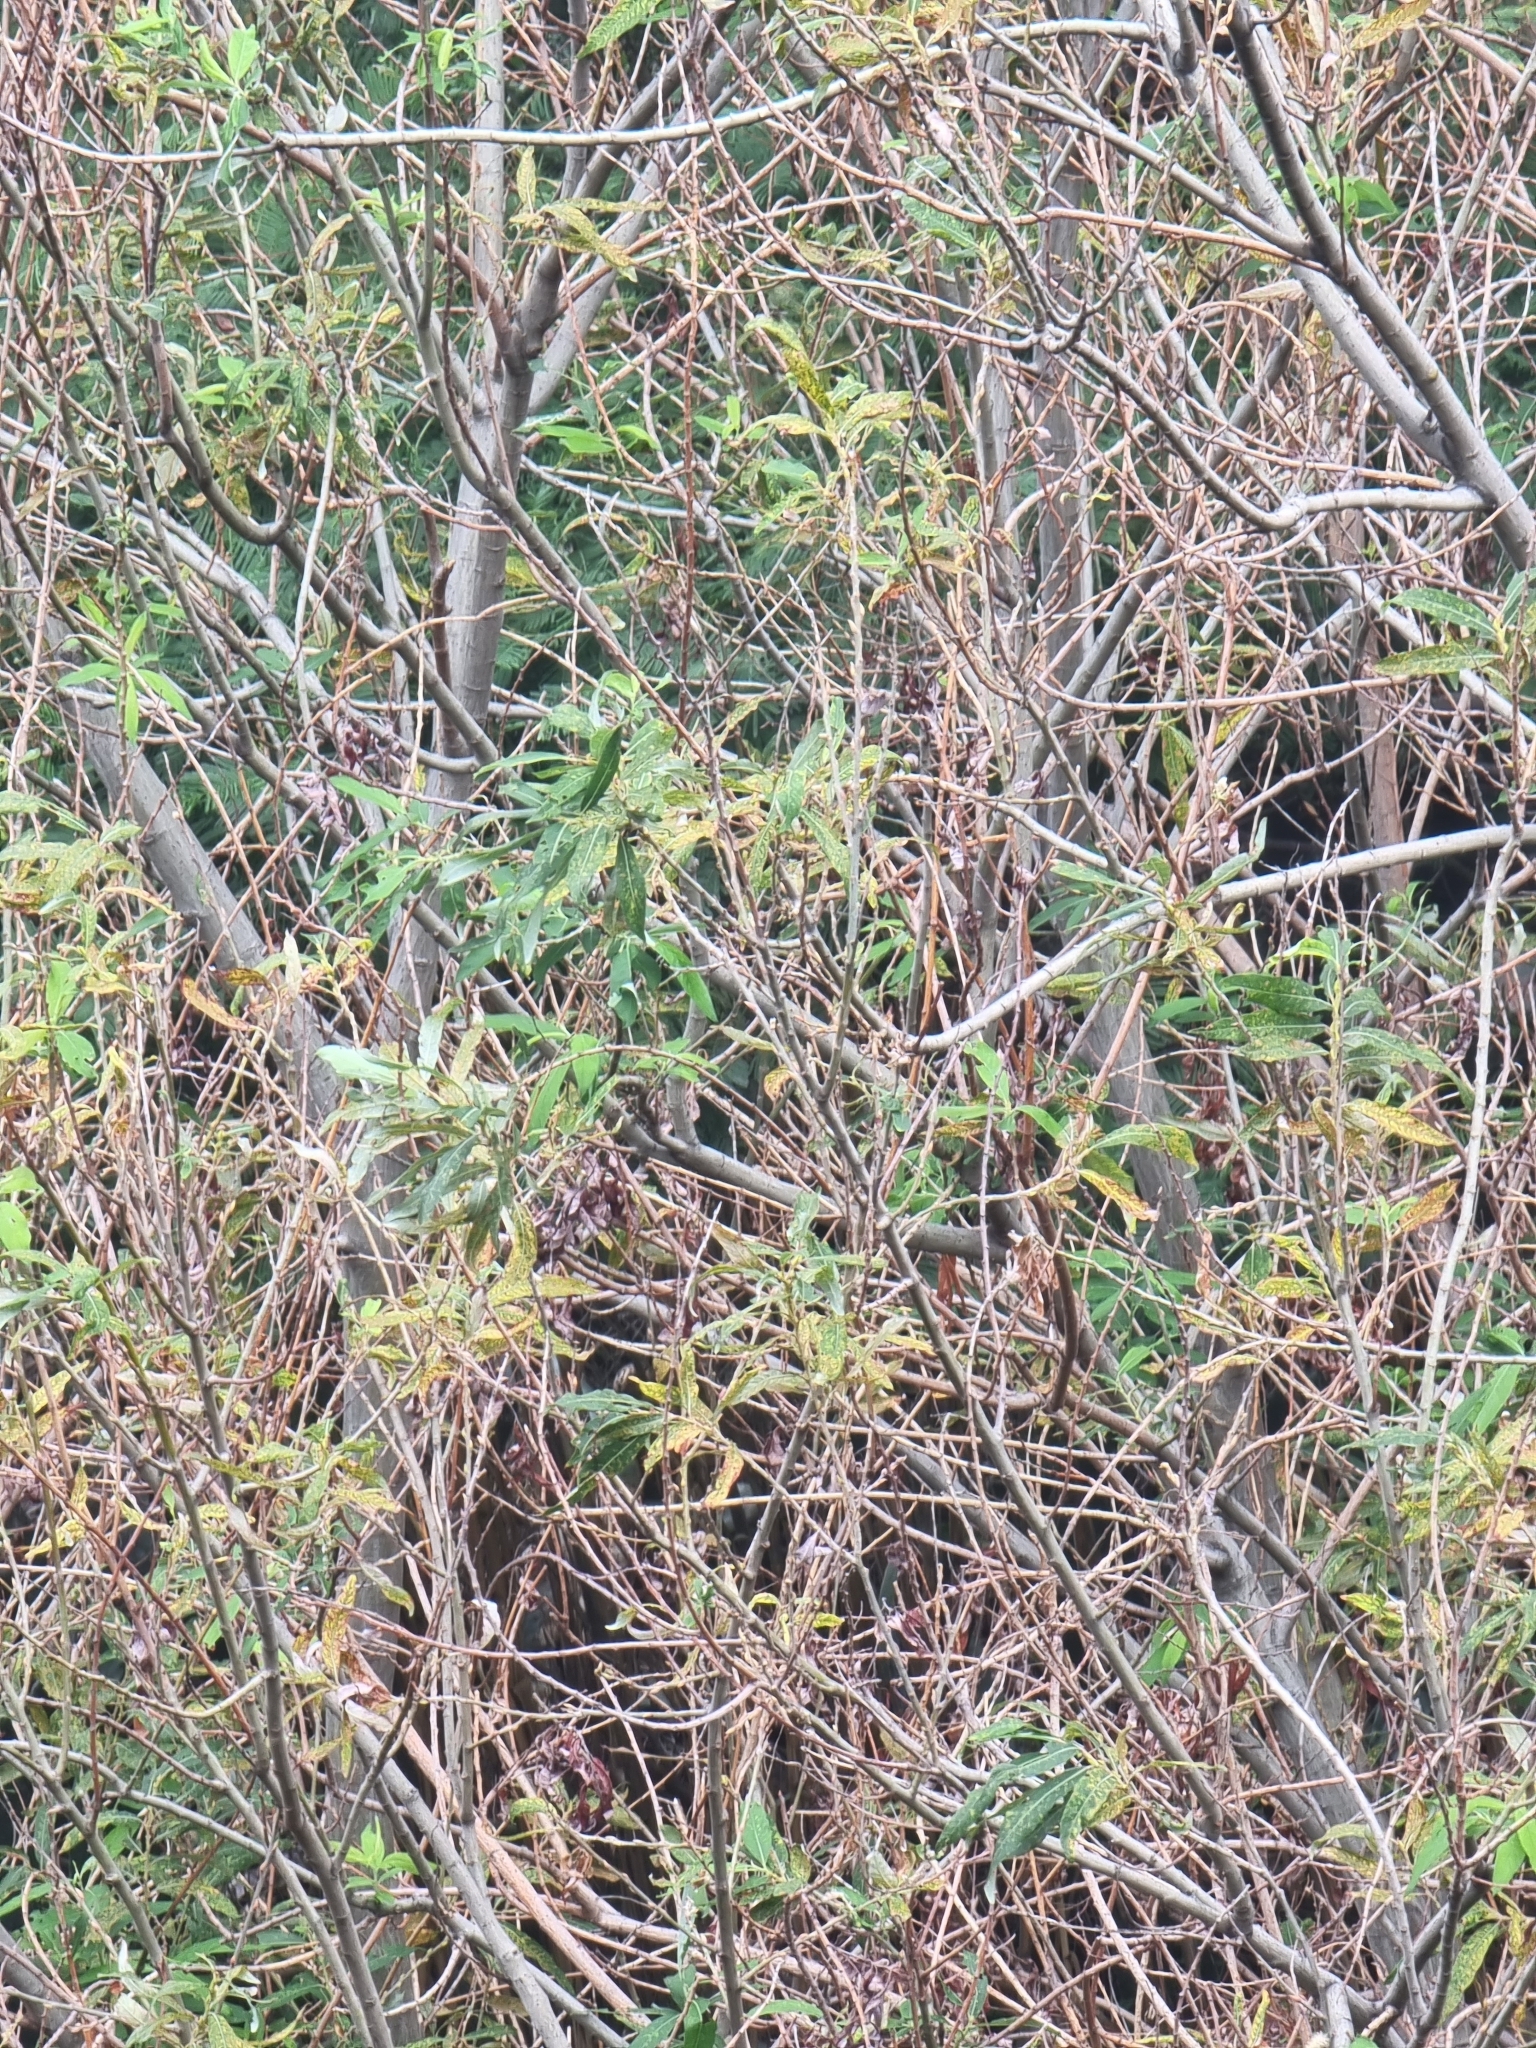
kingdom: Plantae
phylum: Tracheophyta
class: Magnoliopsida
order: Malpighiales
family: Salicaceae
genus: Salix
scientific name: Salix canariensis
